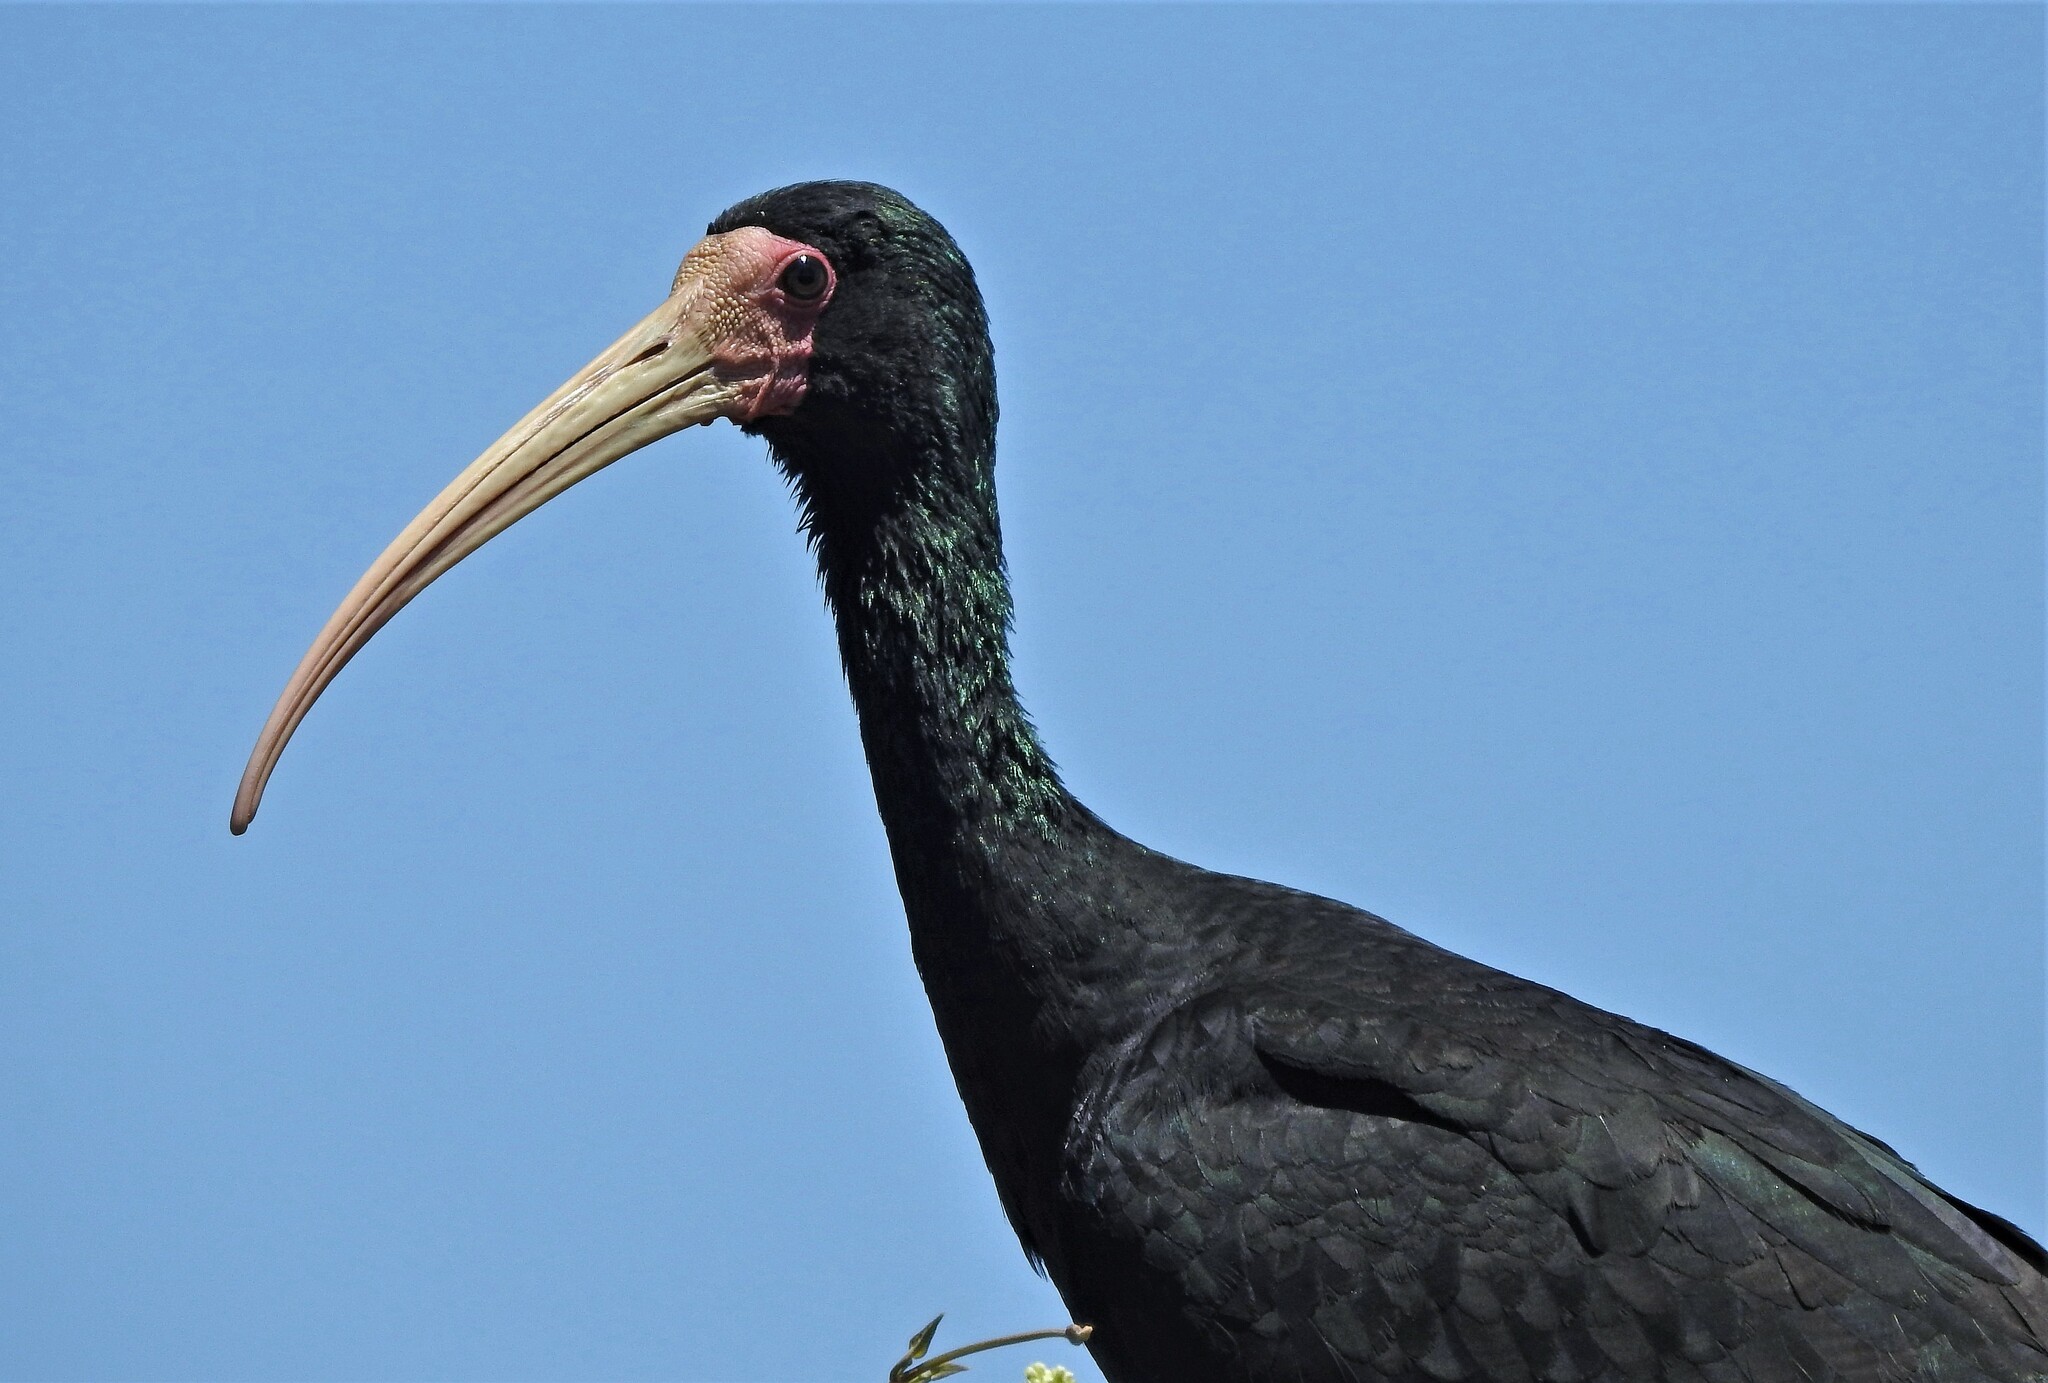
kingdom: Animalia
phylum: Chordata
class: Aves
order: Pelecaniformes
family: Threskiornithidae
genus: Phimosus
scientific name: Phimosus infuscatus
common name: Bare-faced ibis
